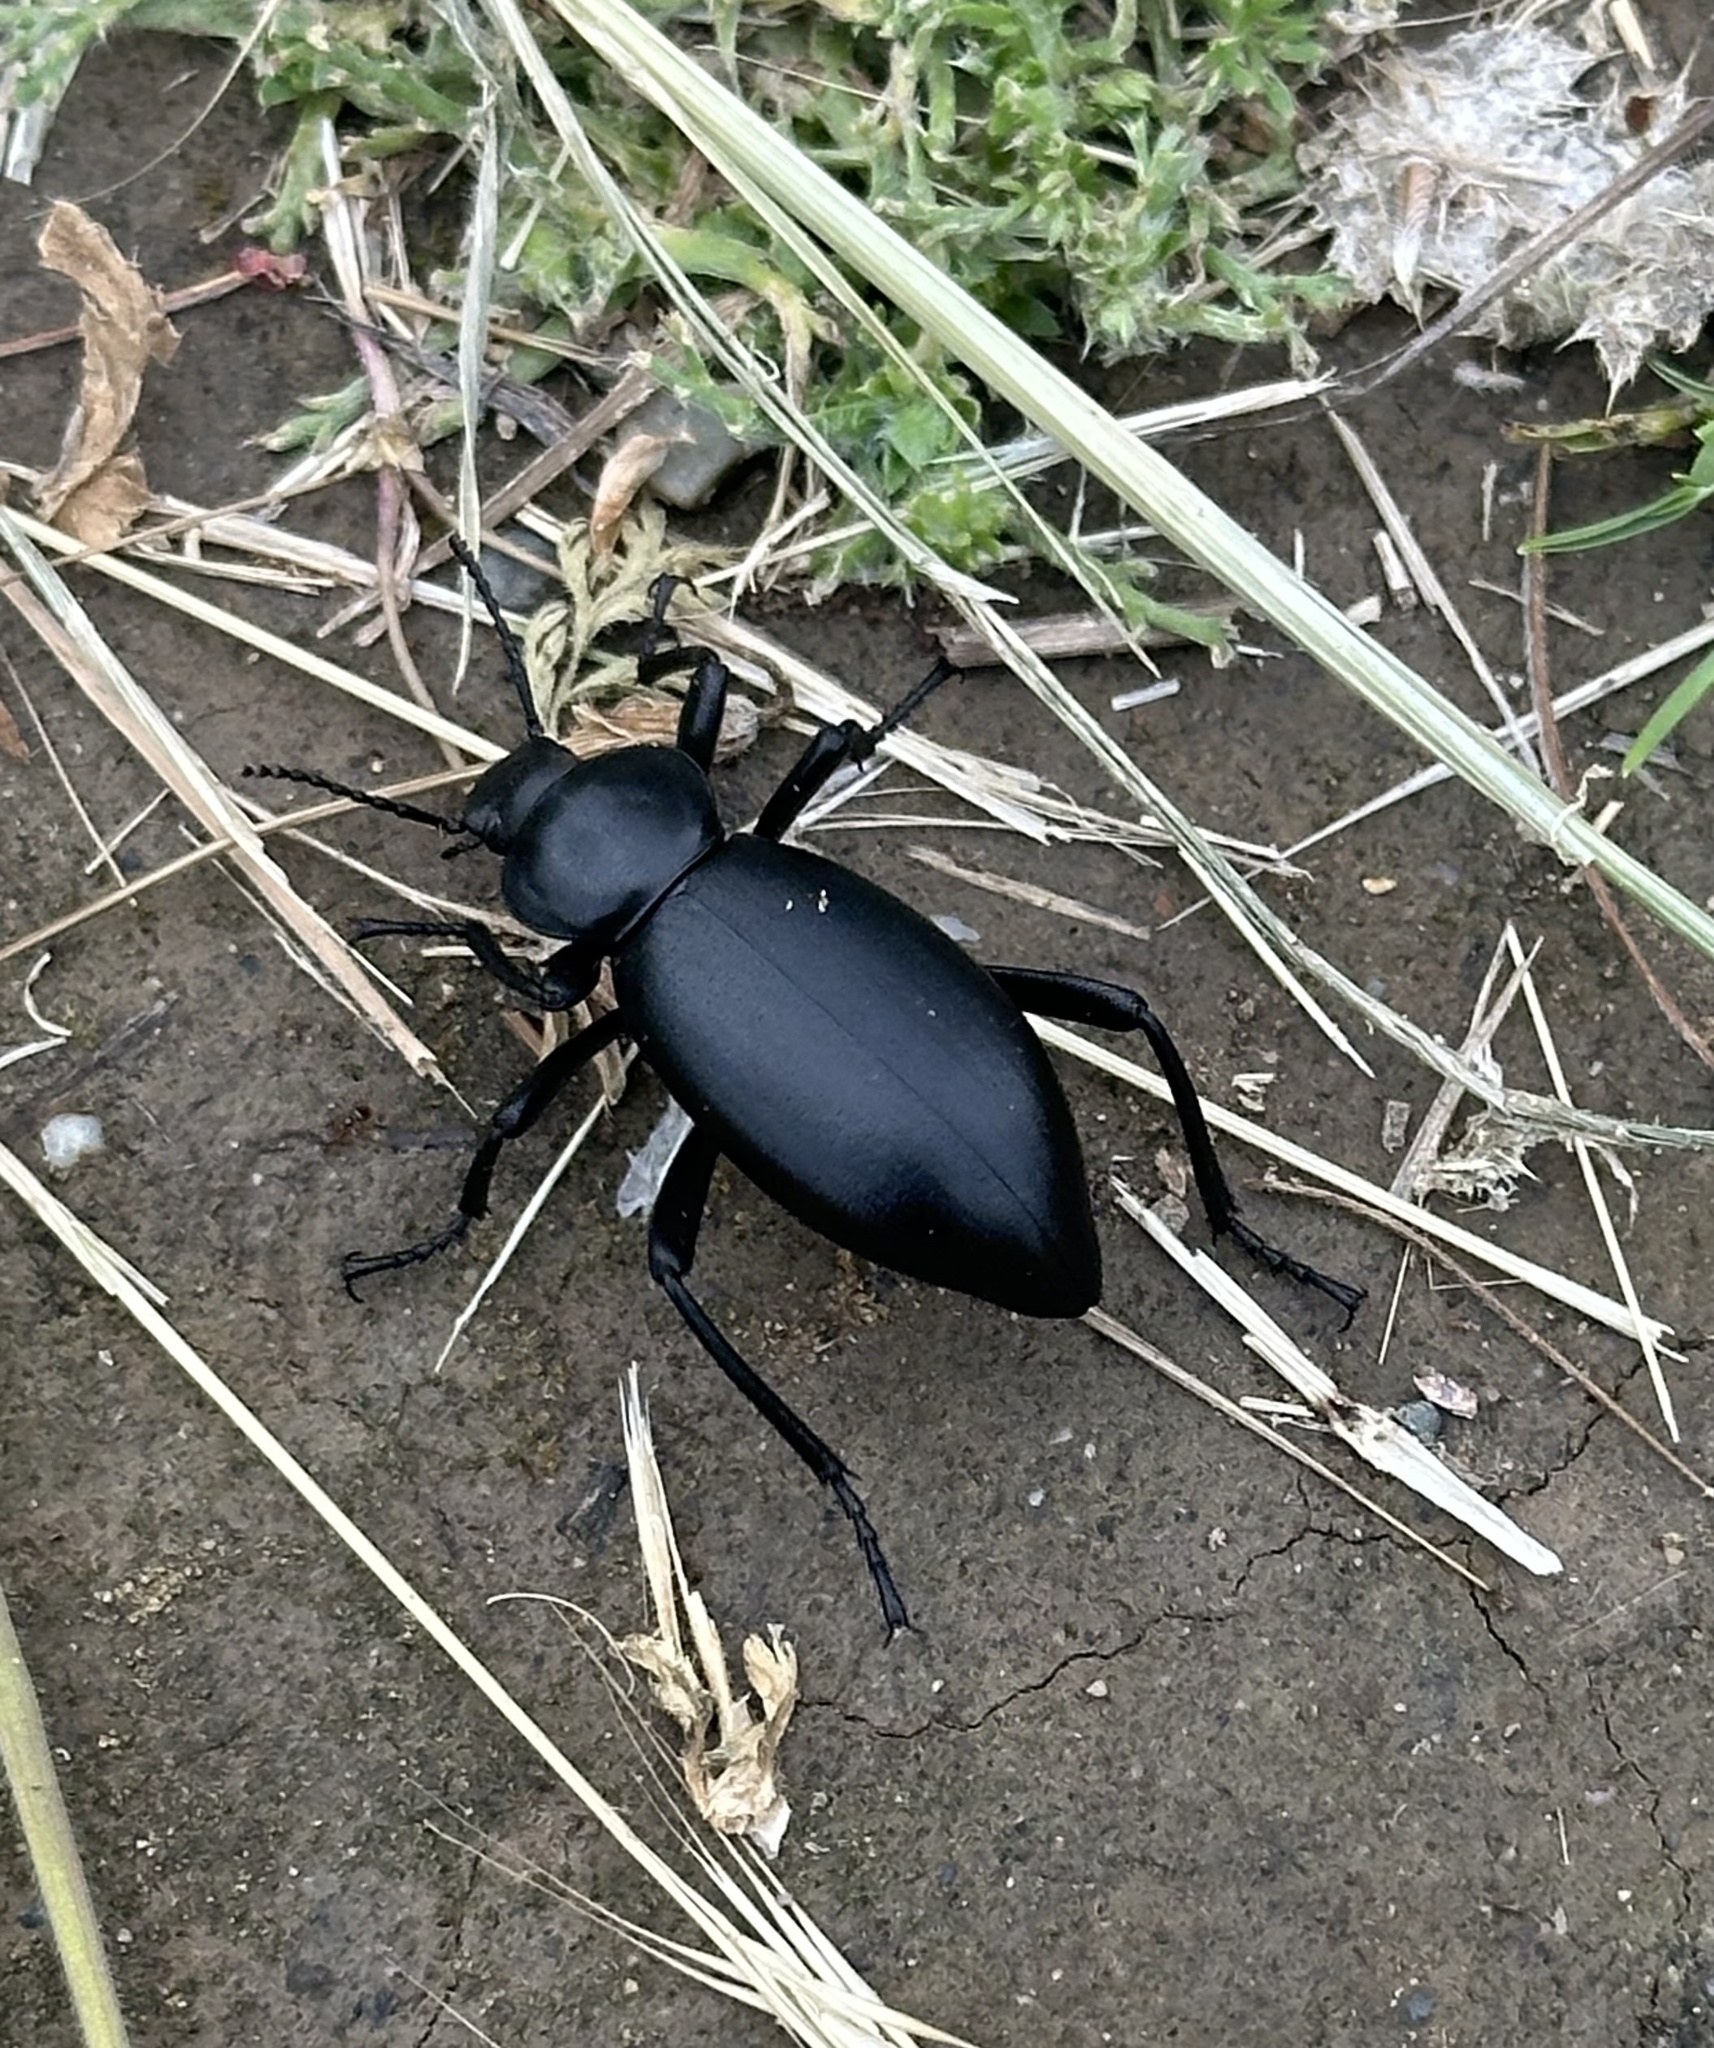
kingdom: Animalia
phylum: Arthropoda
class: Insecta
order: Coleoptera
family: Tenebrionidae
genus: Eleodes
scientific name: Eleodes dentipes
